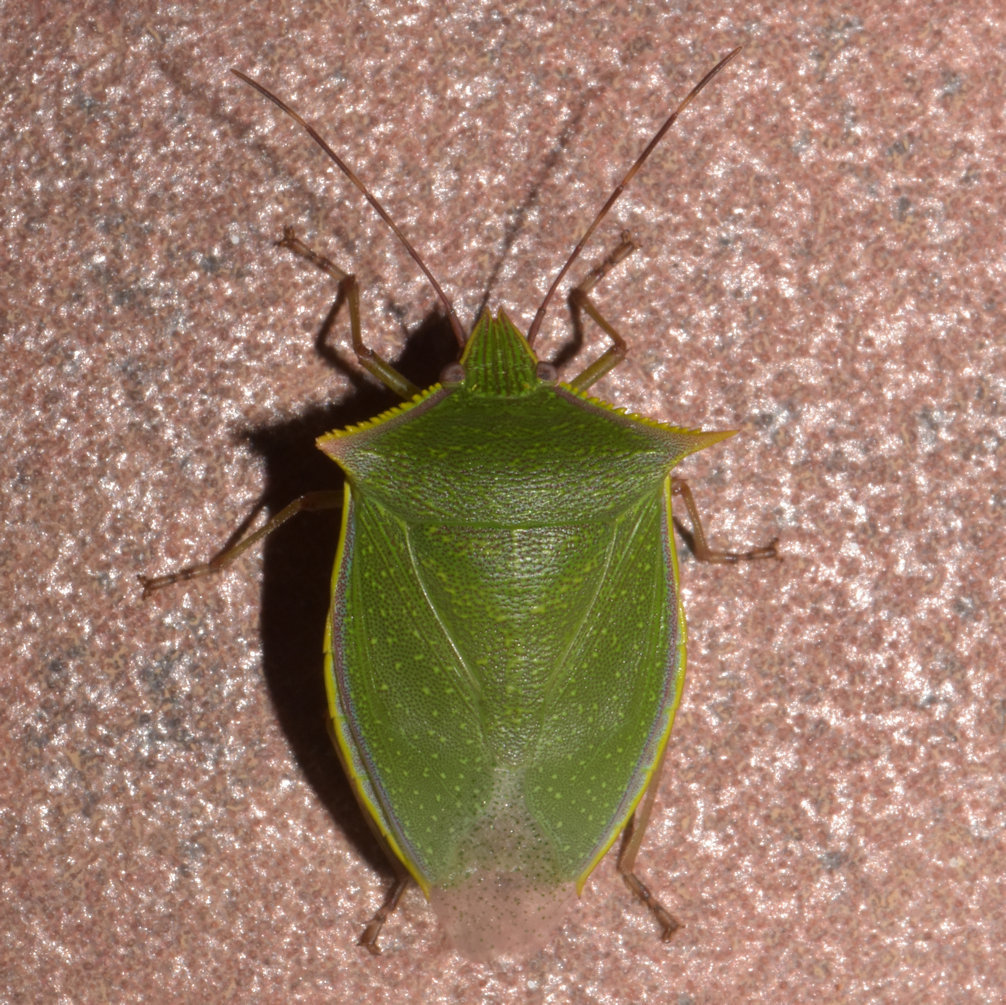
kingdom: Animalia
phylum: Arthropoda
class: Insecta
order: Hemiptera
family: Pentatomidae
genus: Loxa
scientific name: Loxa viridis
